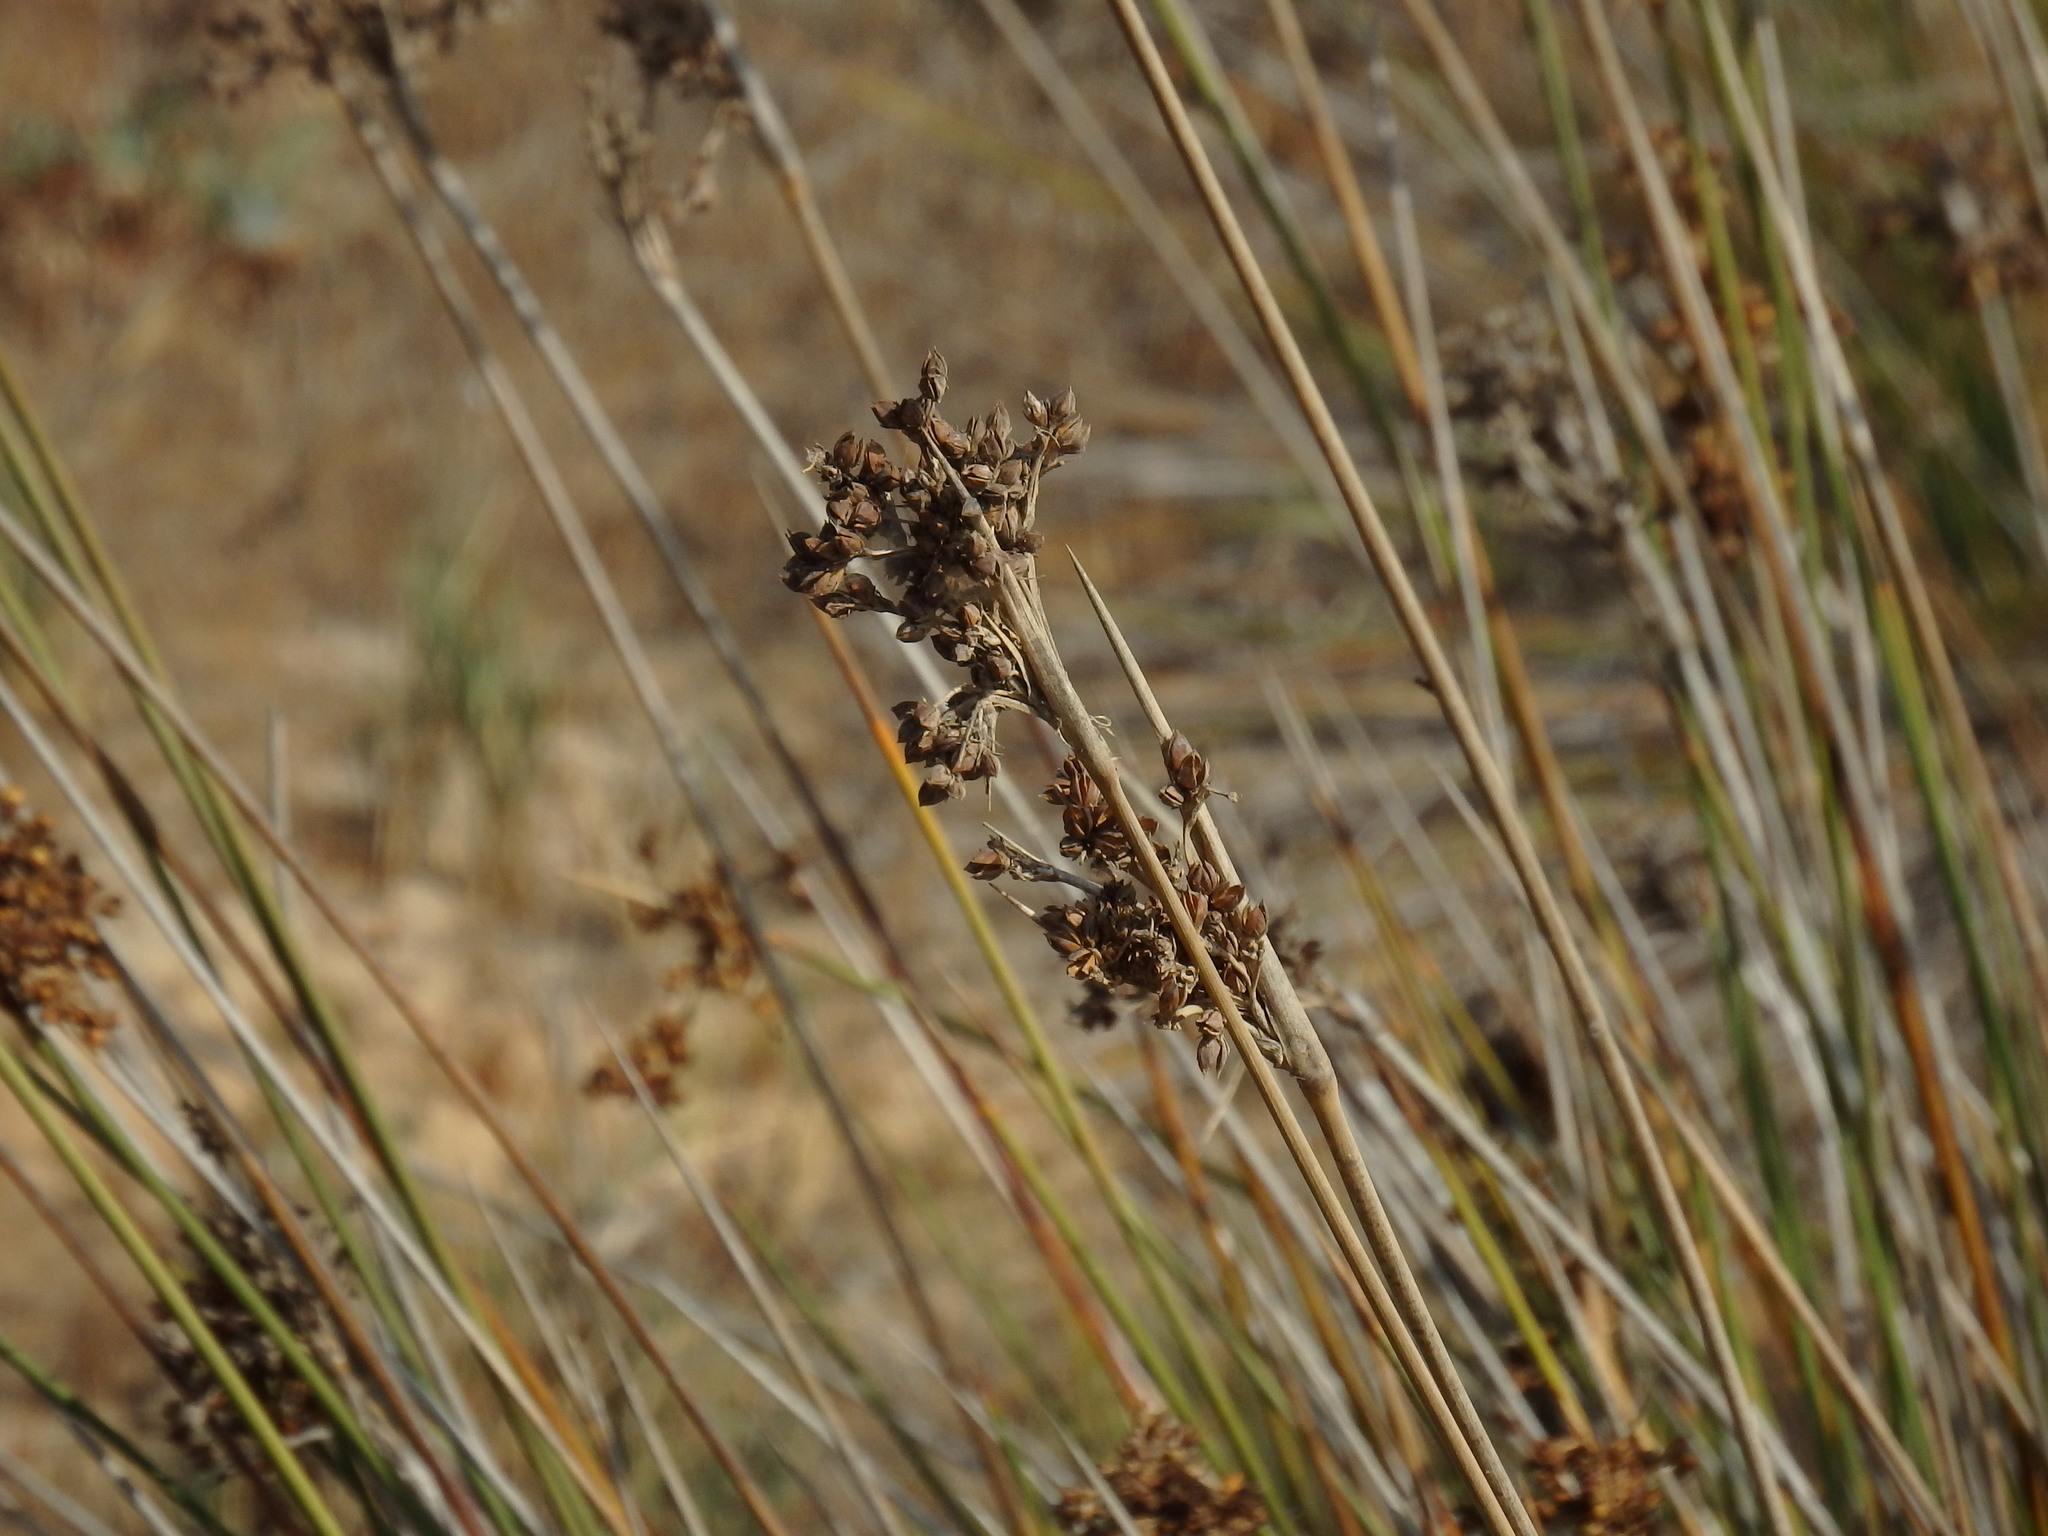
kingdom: Plantae
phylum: Tracheophyta
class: Liliopsida
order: Poales
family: Juncaceae
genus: Juncus
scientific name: Juncus acutus
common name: Sharp rush
